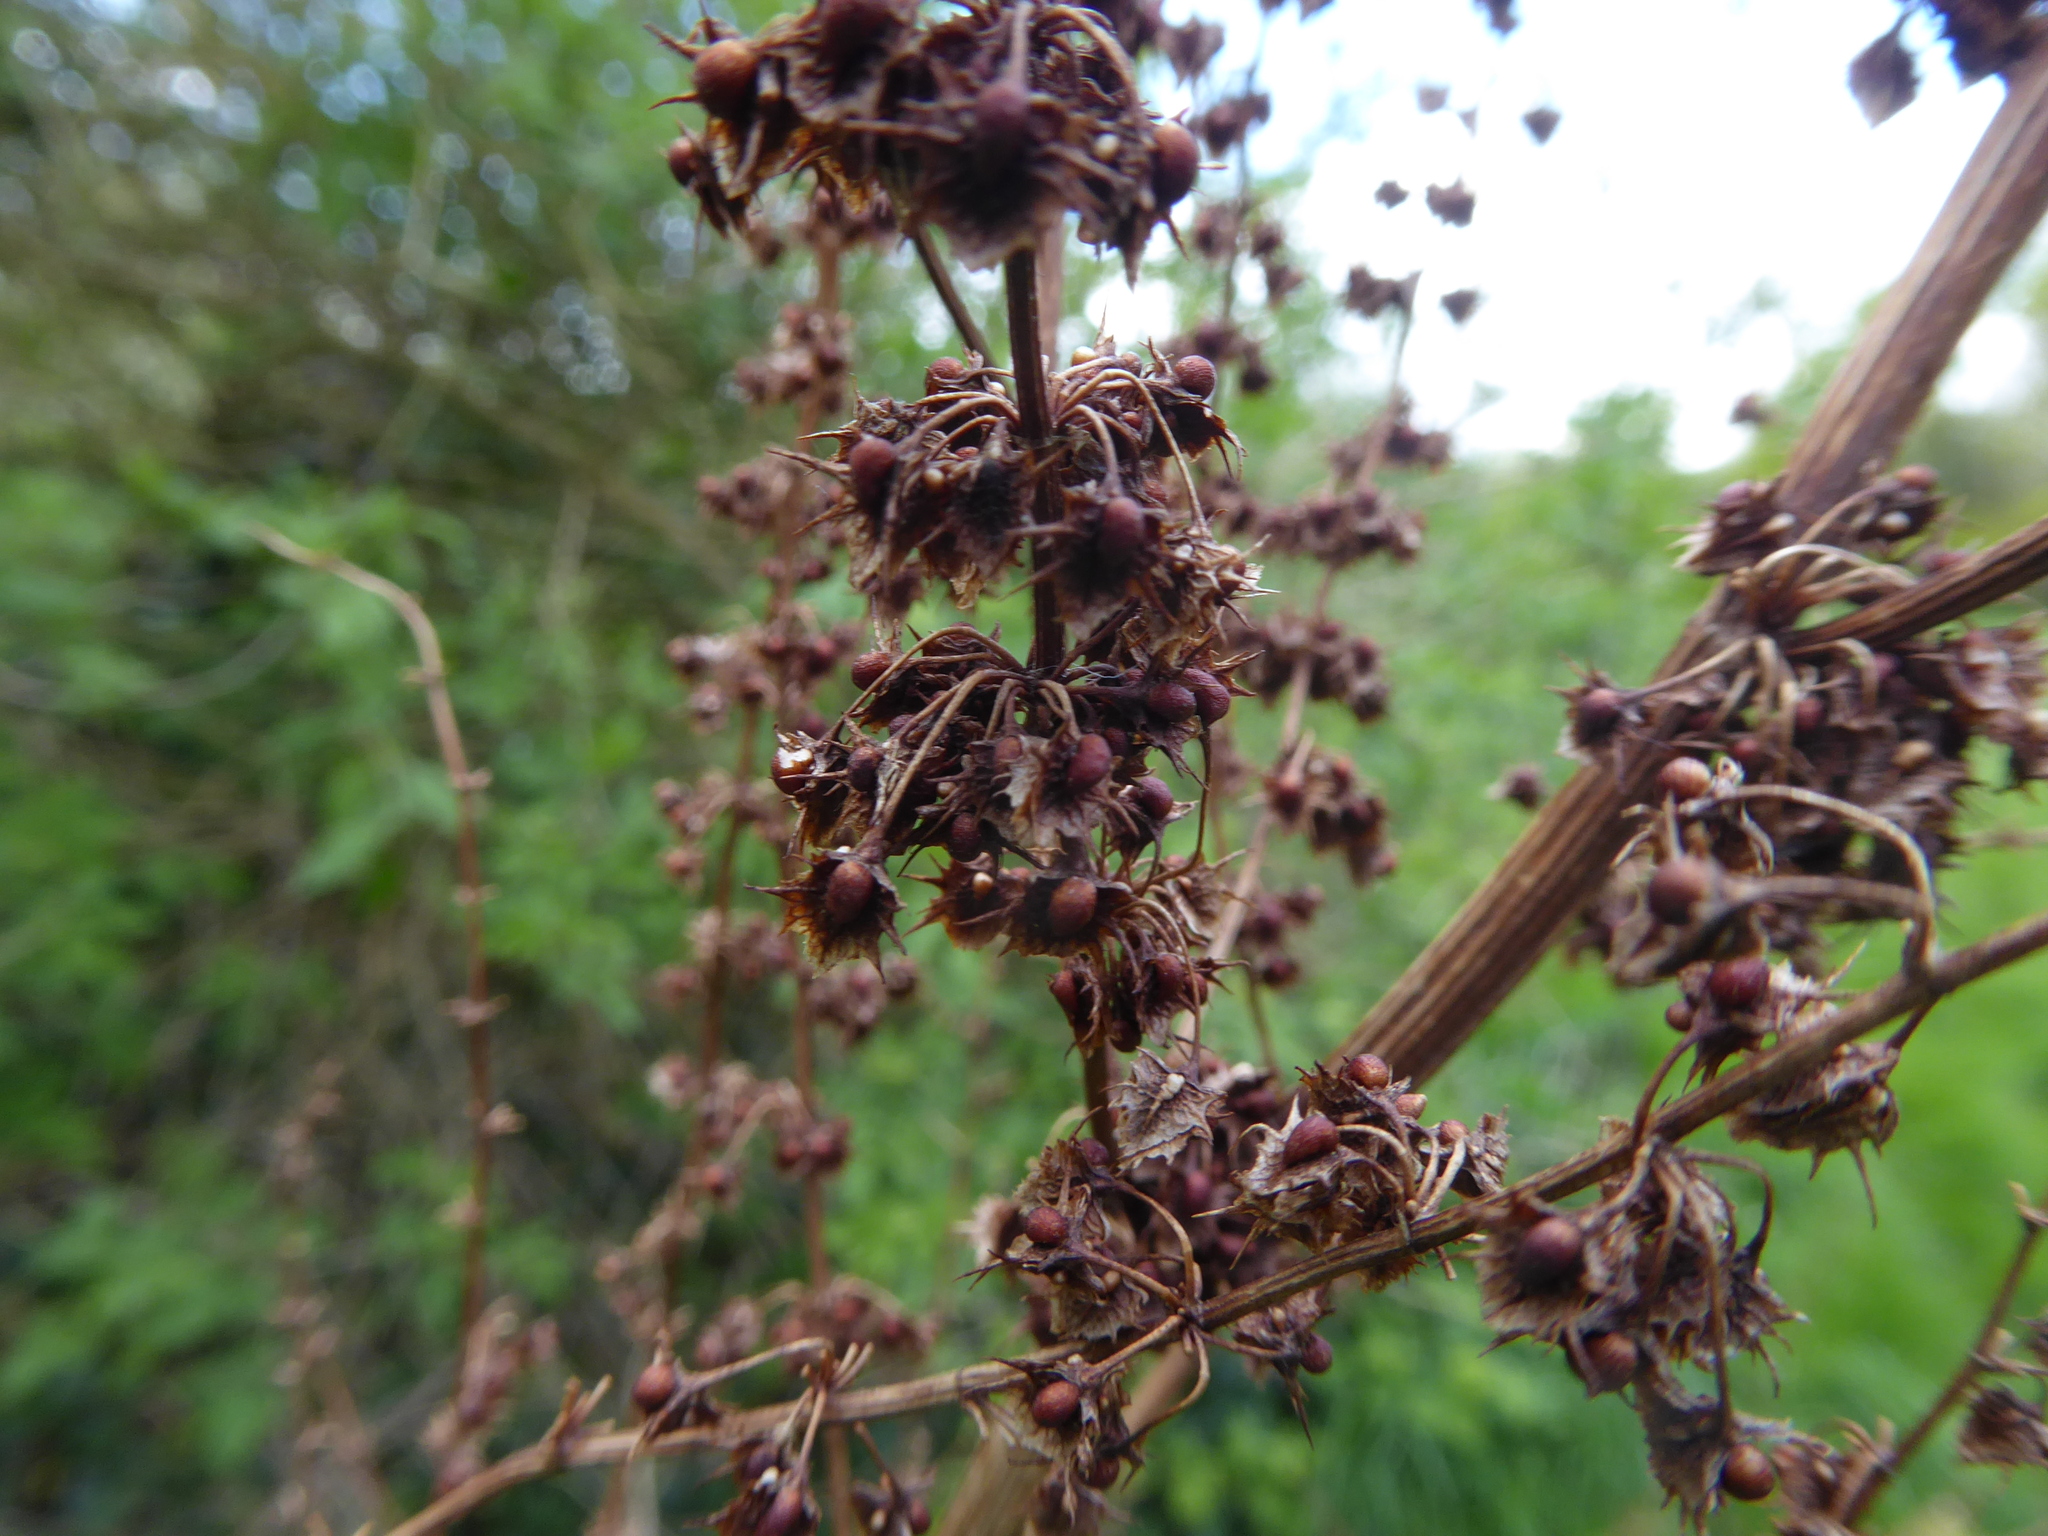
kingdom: Plantae
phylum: Tracheophyta
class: Magnoliopsida
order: Caryophyllales
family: Polygonaceae
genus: Rumex
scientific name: Rumex obtusifolius
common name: Bitter dock
